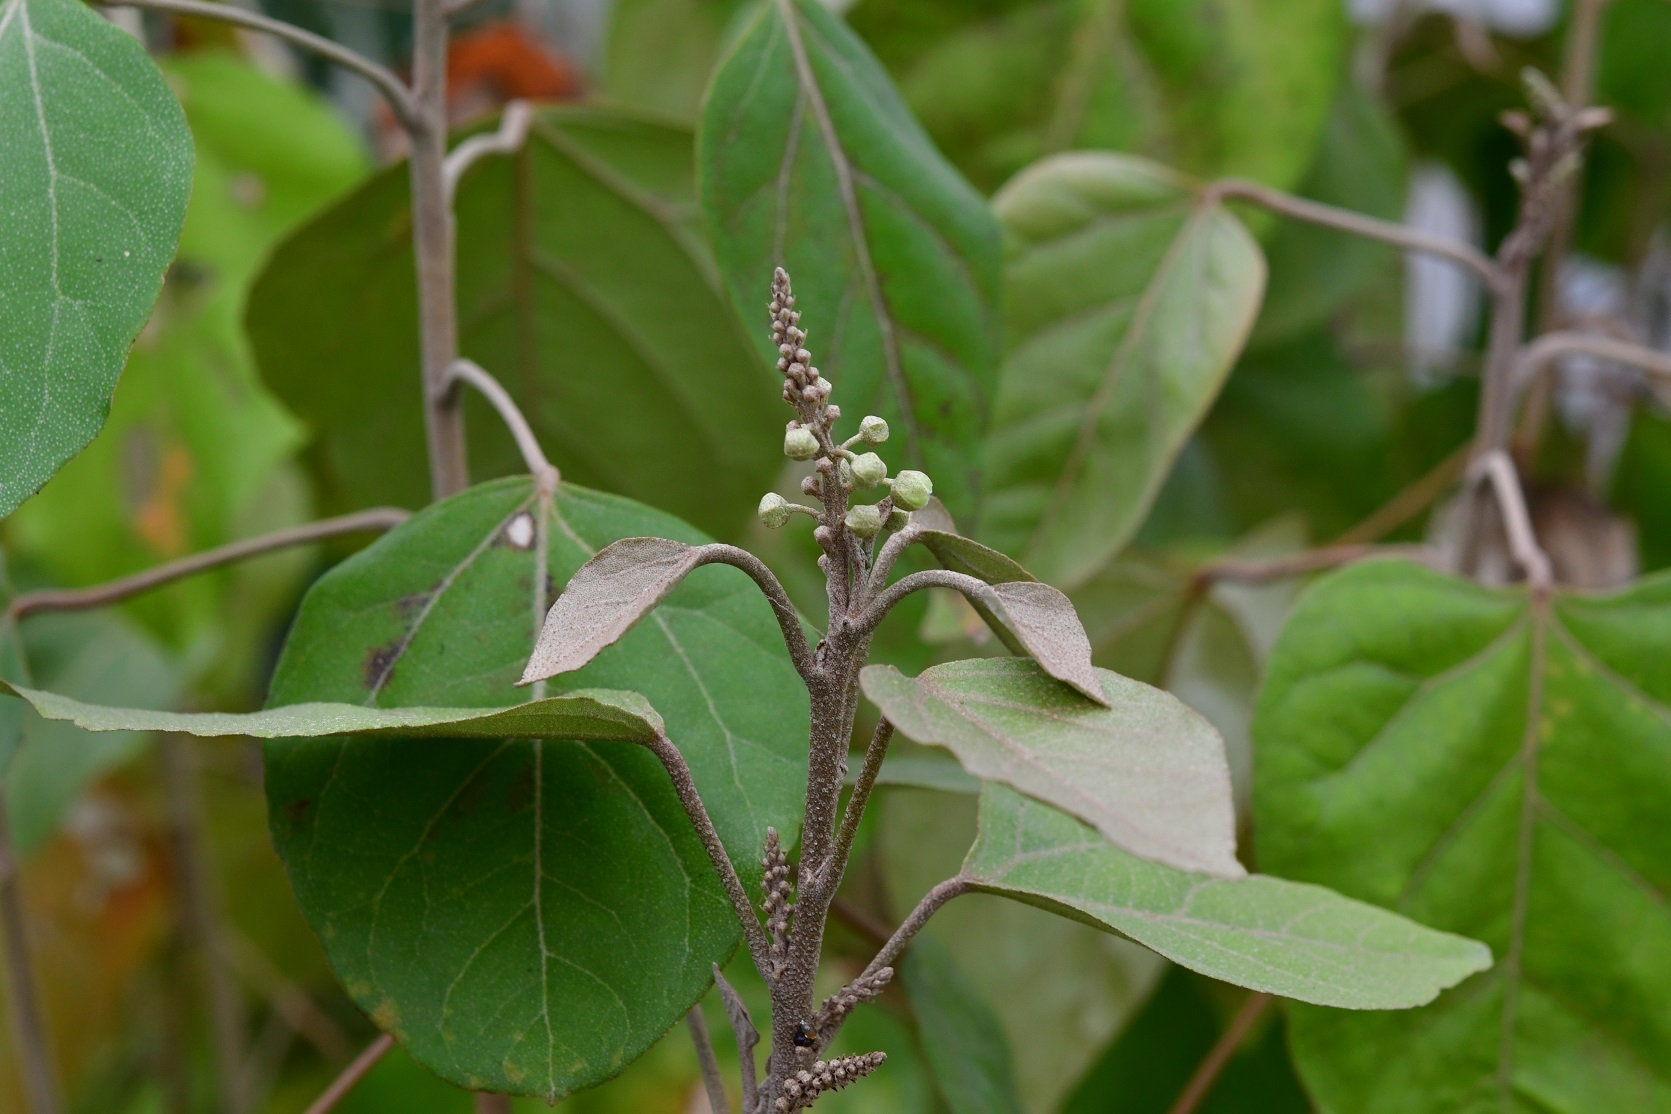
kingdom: Plantae
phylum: Tracheophyta
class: Magnoliopsida
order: Malpighiales
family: Euphorbiaceae
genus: Croton
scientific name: Croton guatemalensis
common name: Copalchi
